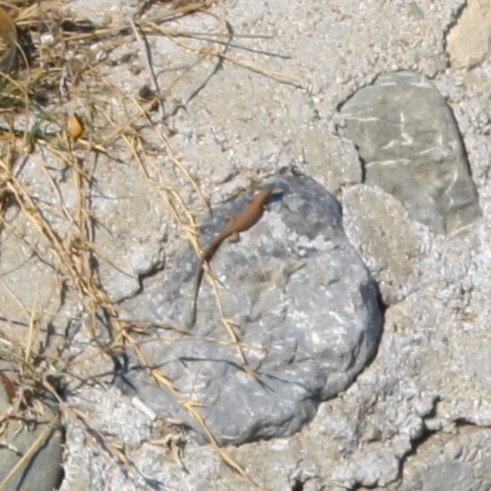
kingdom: Animalia
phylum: Chordata
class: Squamata
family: Lacertidae
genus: Phoenicolacerta
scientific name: Phoenicolacerta laevis
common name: Lebanon lizard
